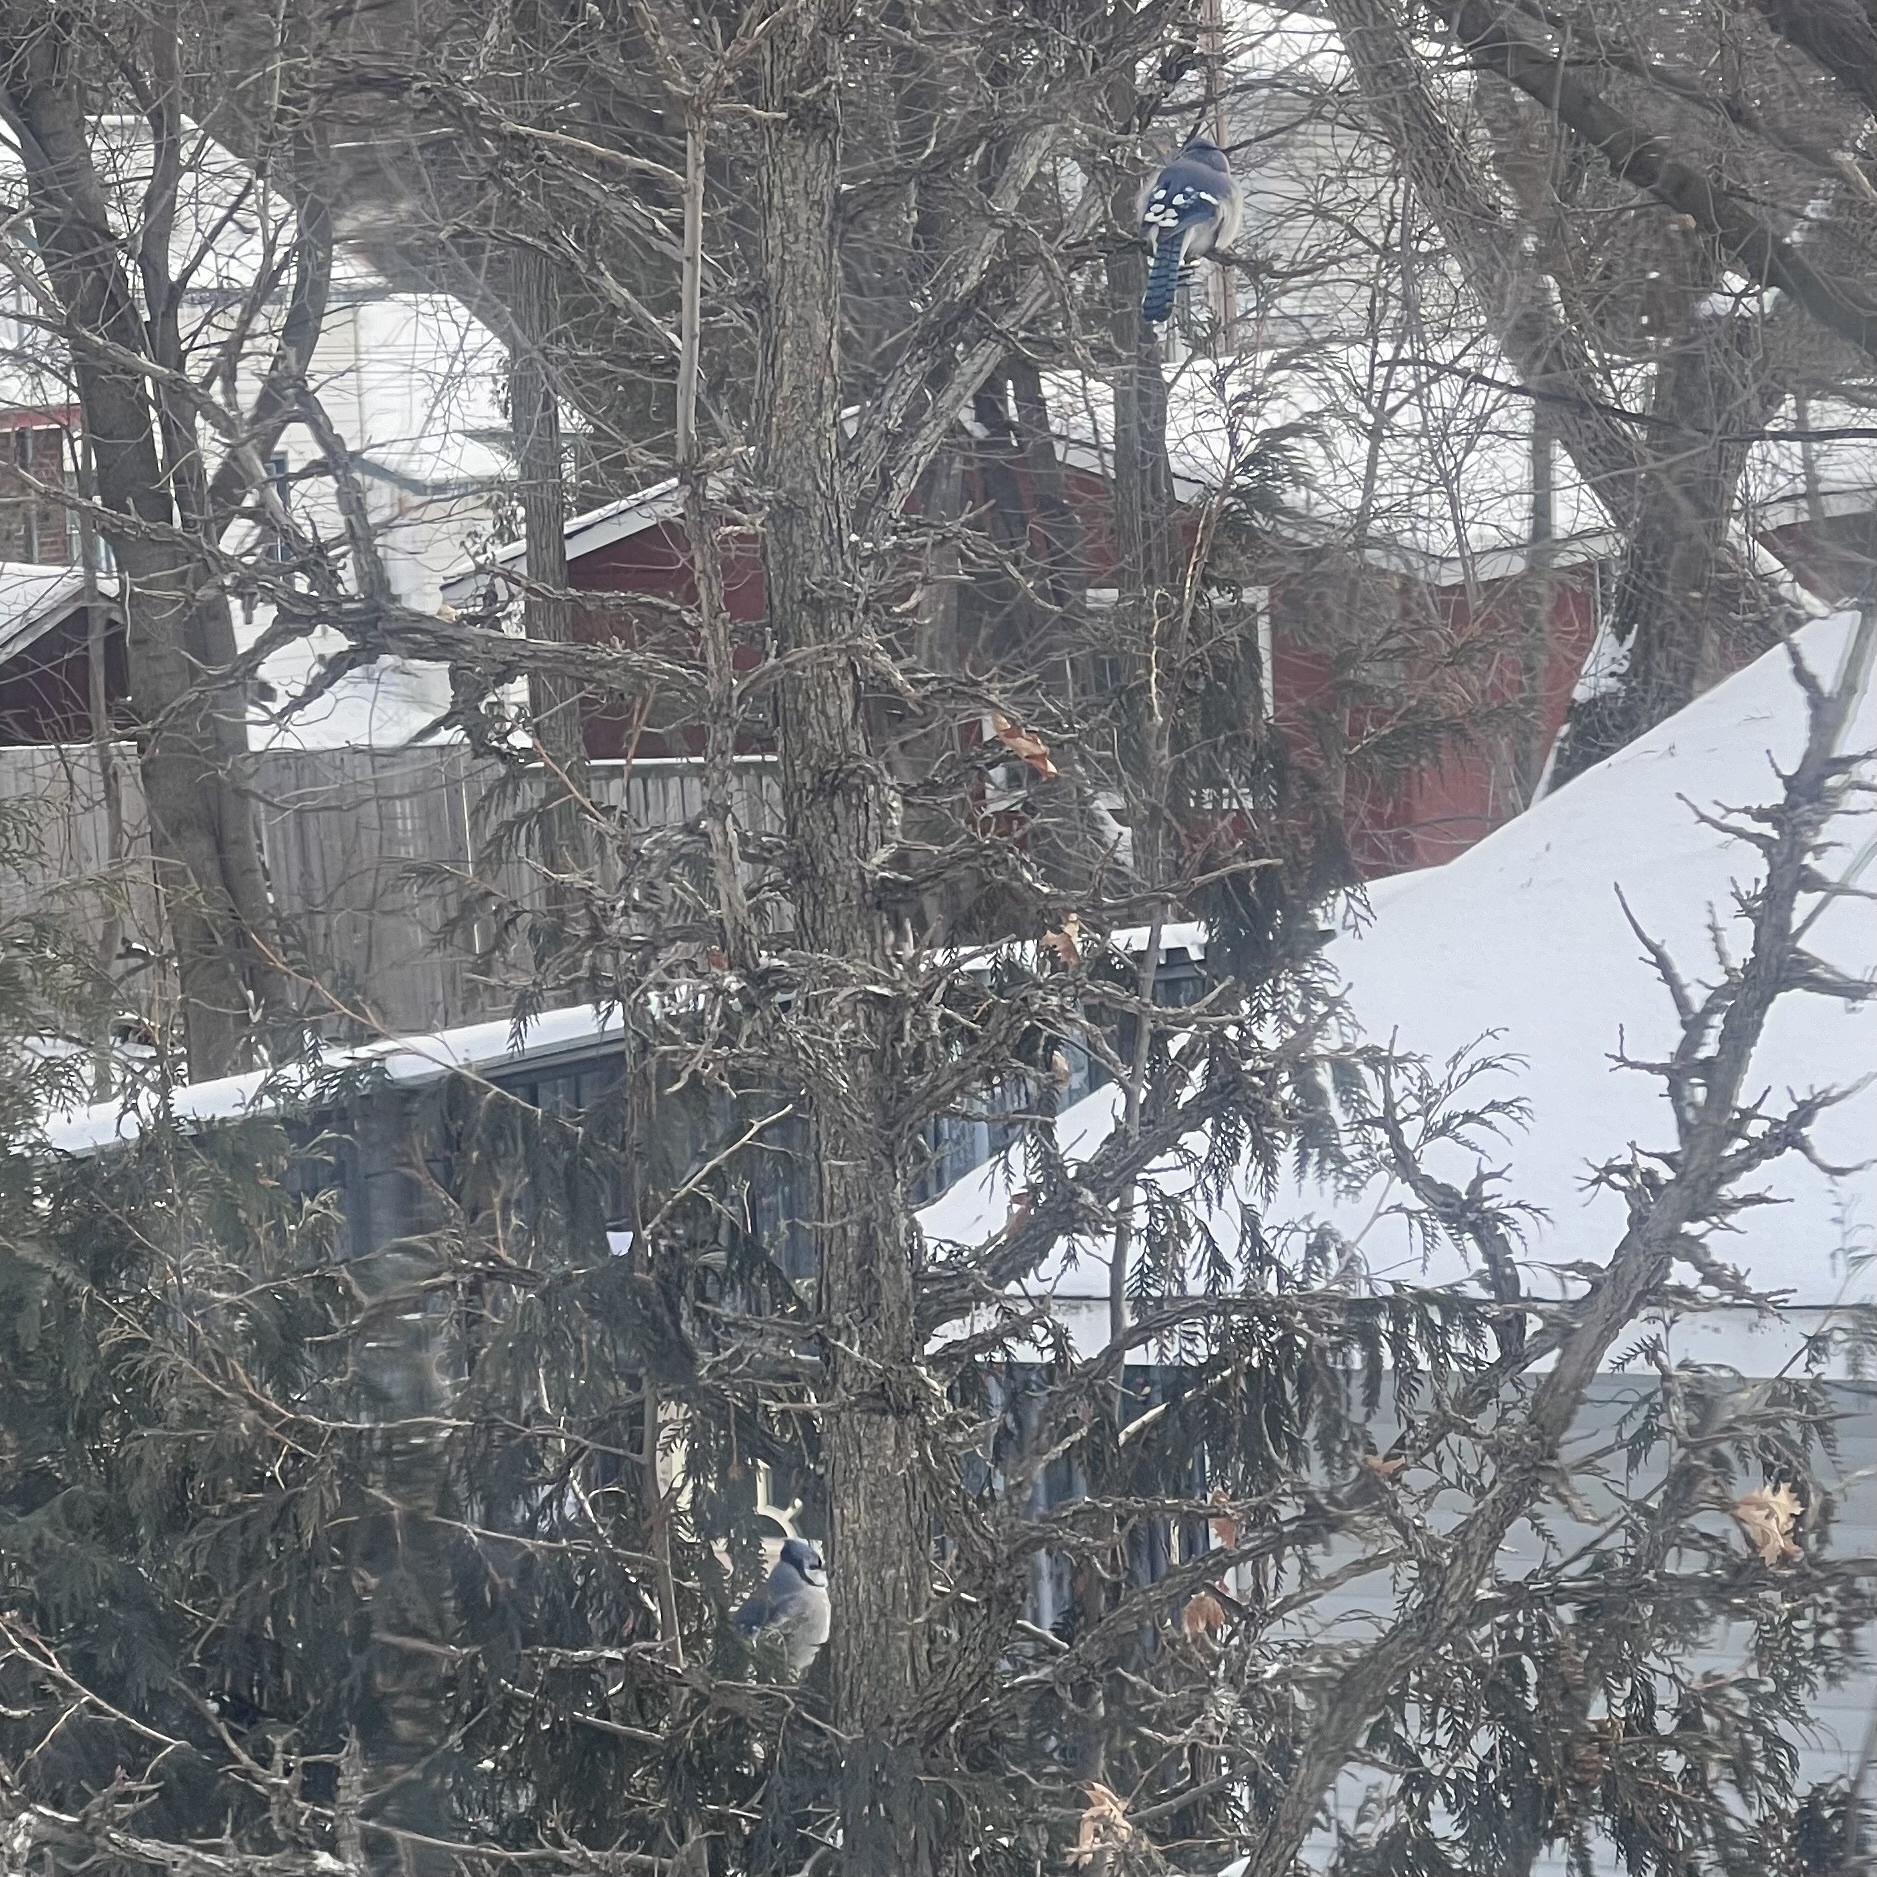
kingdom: Animalia
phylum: Chordata
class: Aves
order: Passeriformes
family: Corvidae
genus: Cyanocitta
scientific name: Cyanocitta cristata
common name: Blue jay
